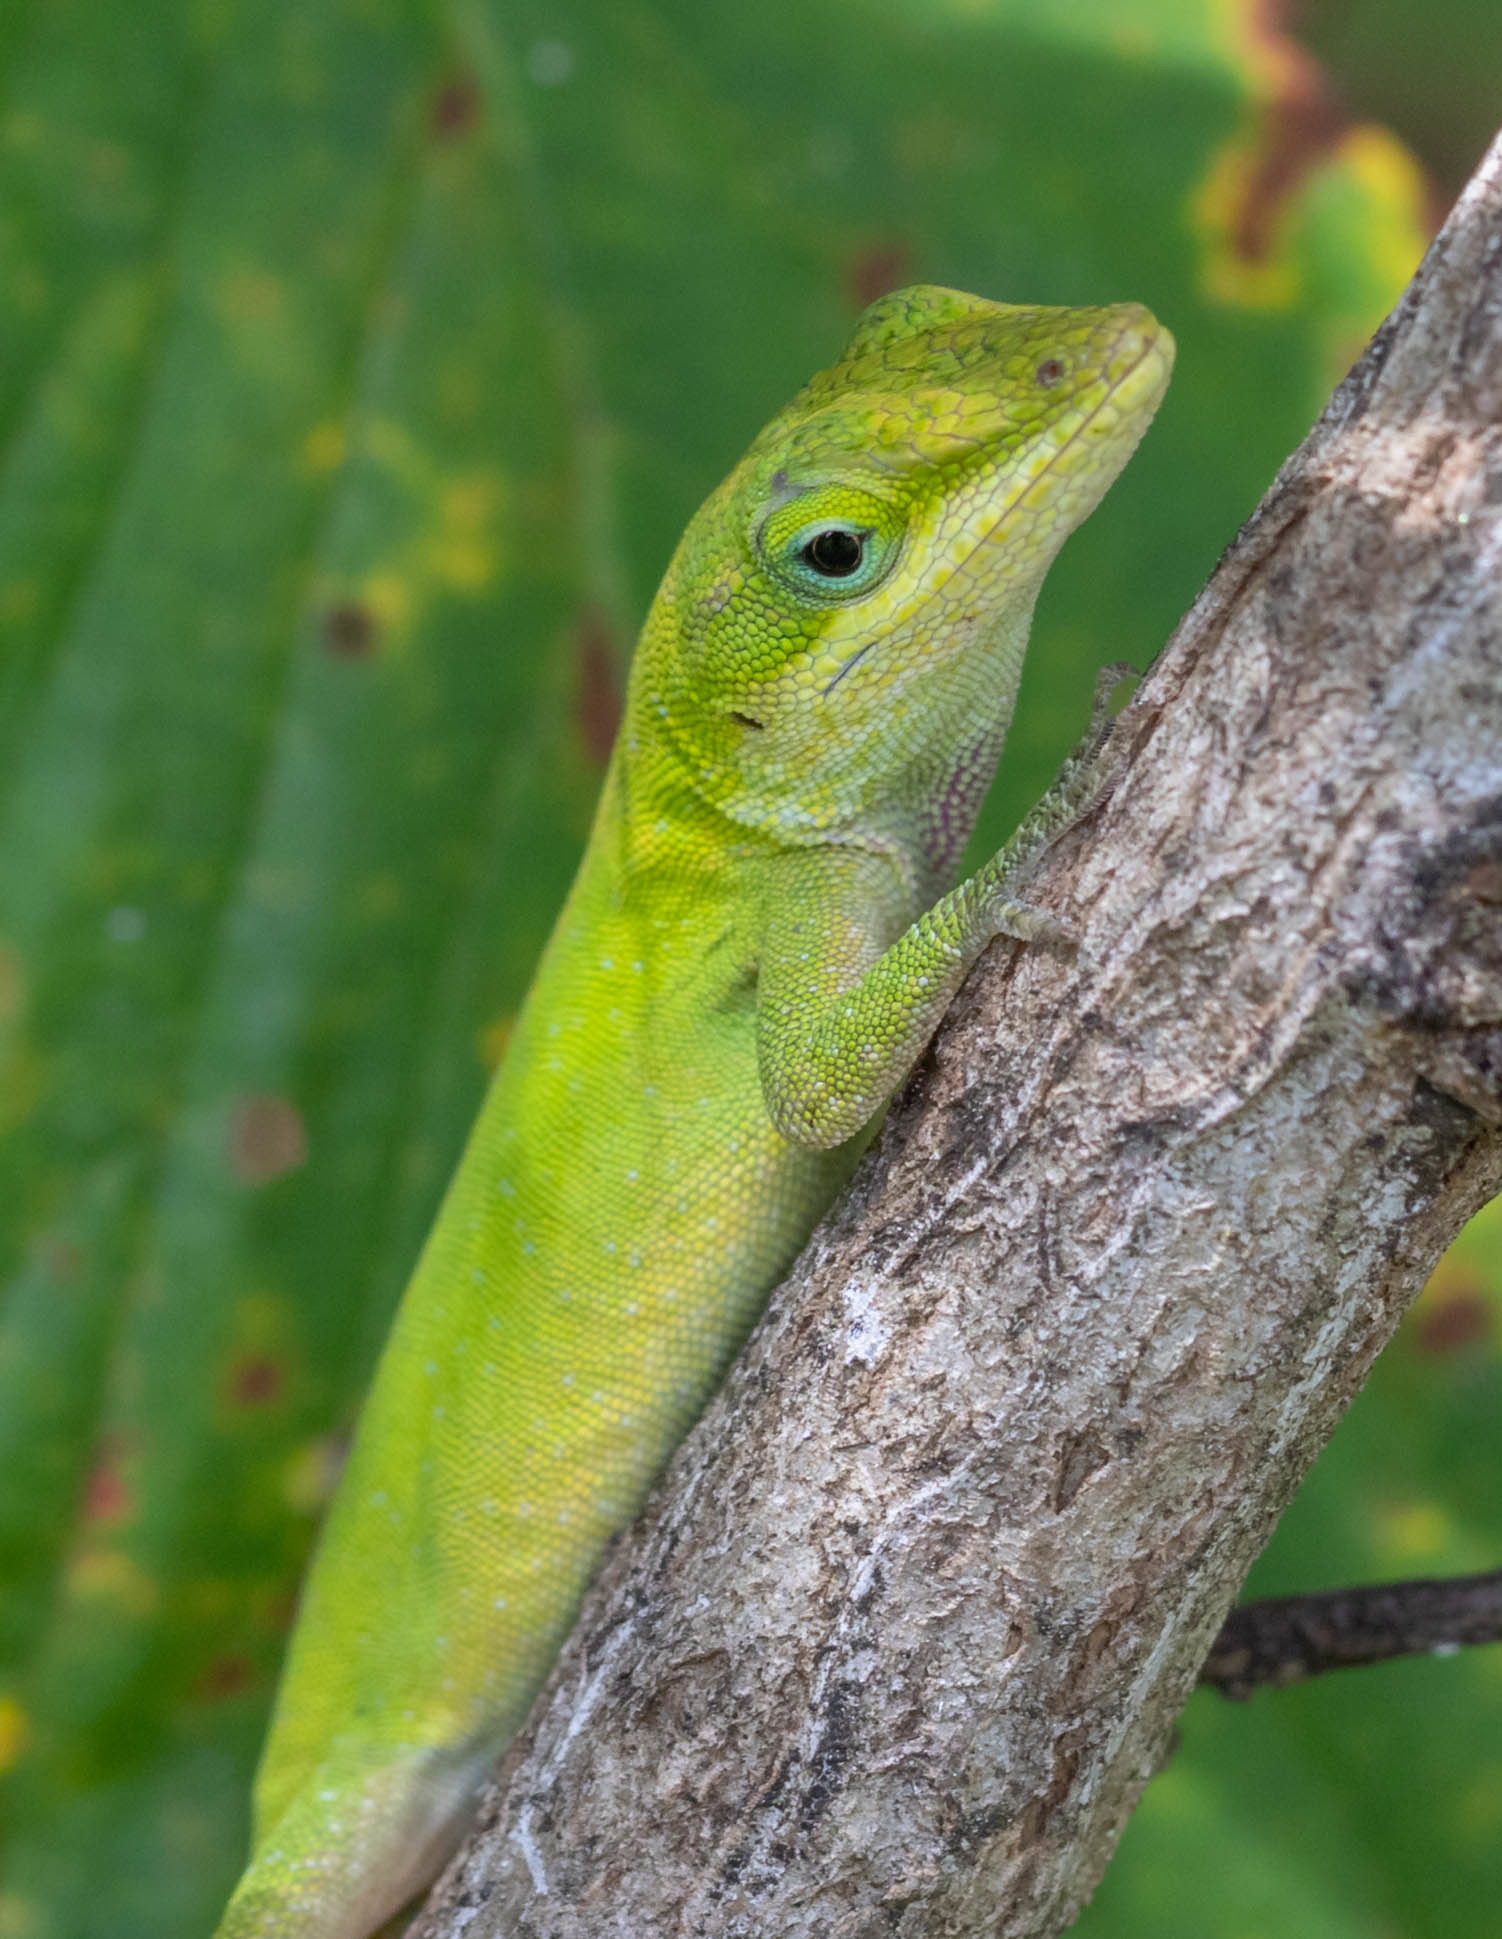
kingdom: Animalia
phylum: Chordata
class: Squamata
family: Dactyloidae
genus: Anolis
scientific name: Anolis carolinensis
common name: Green anole
